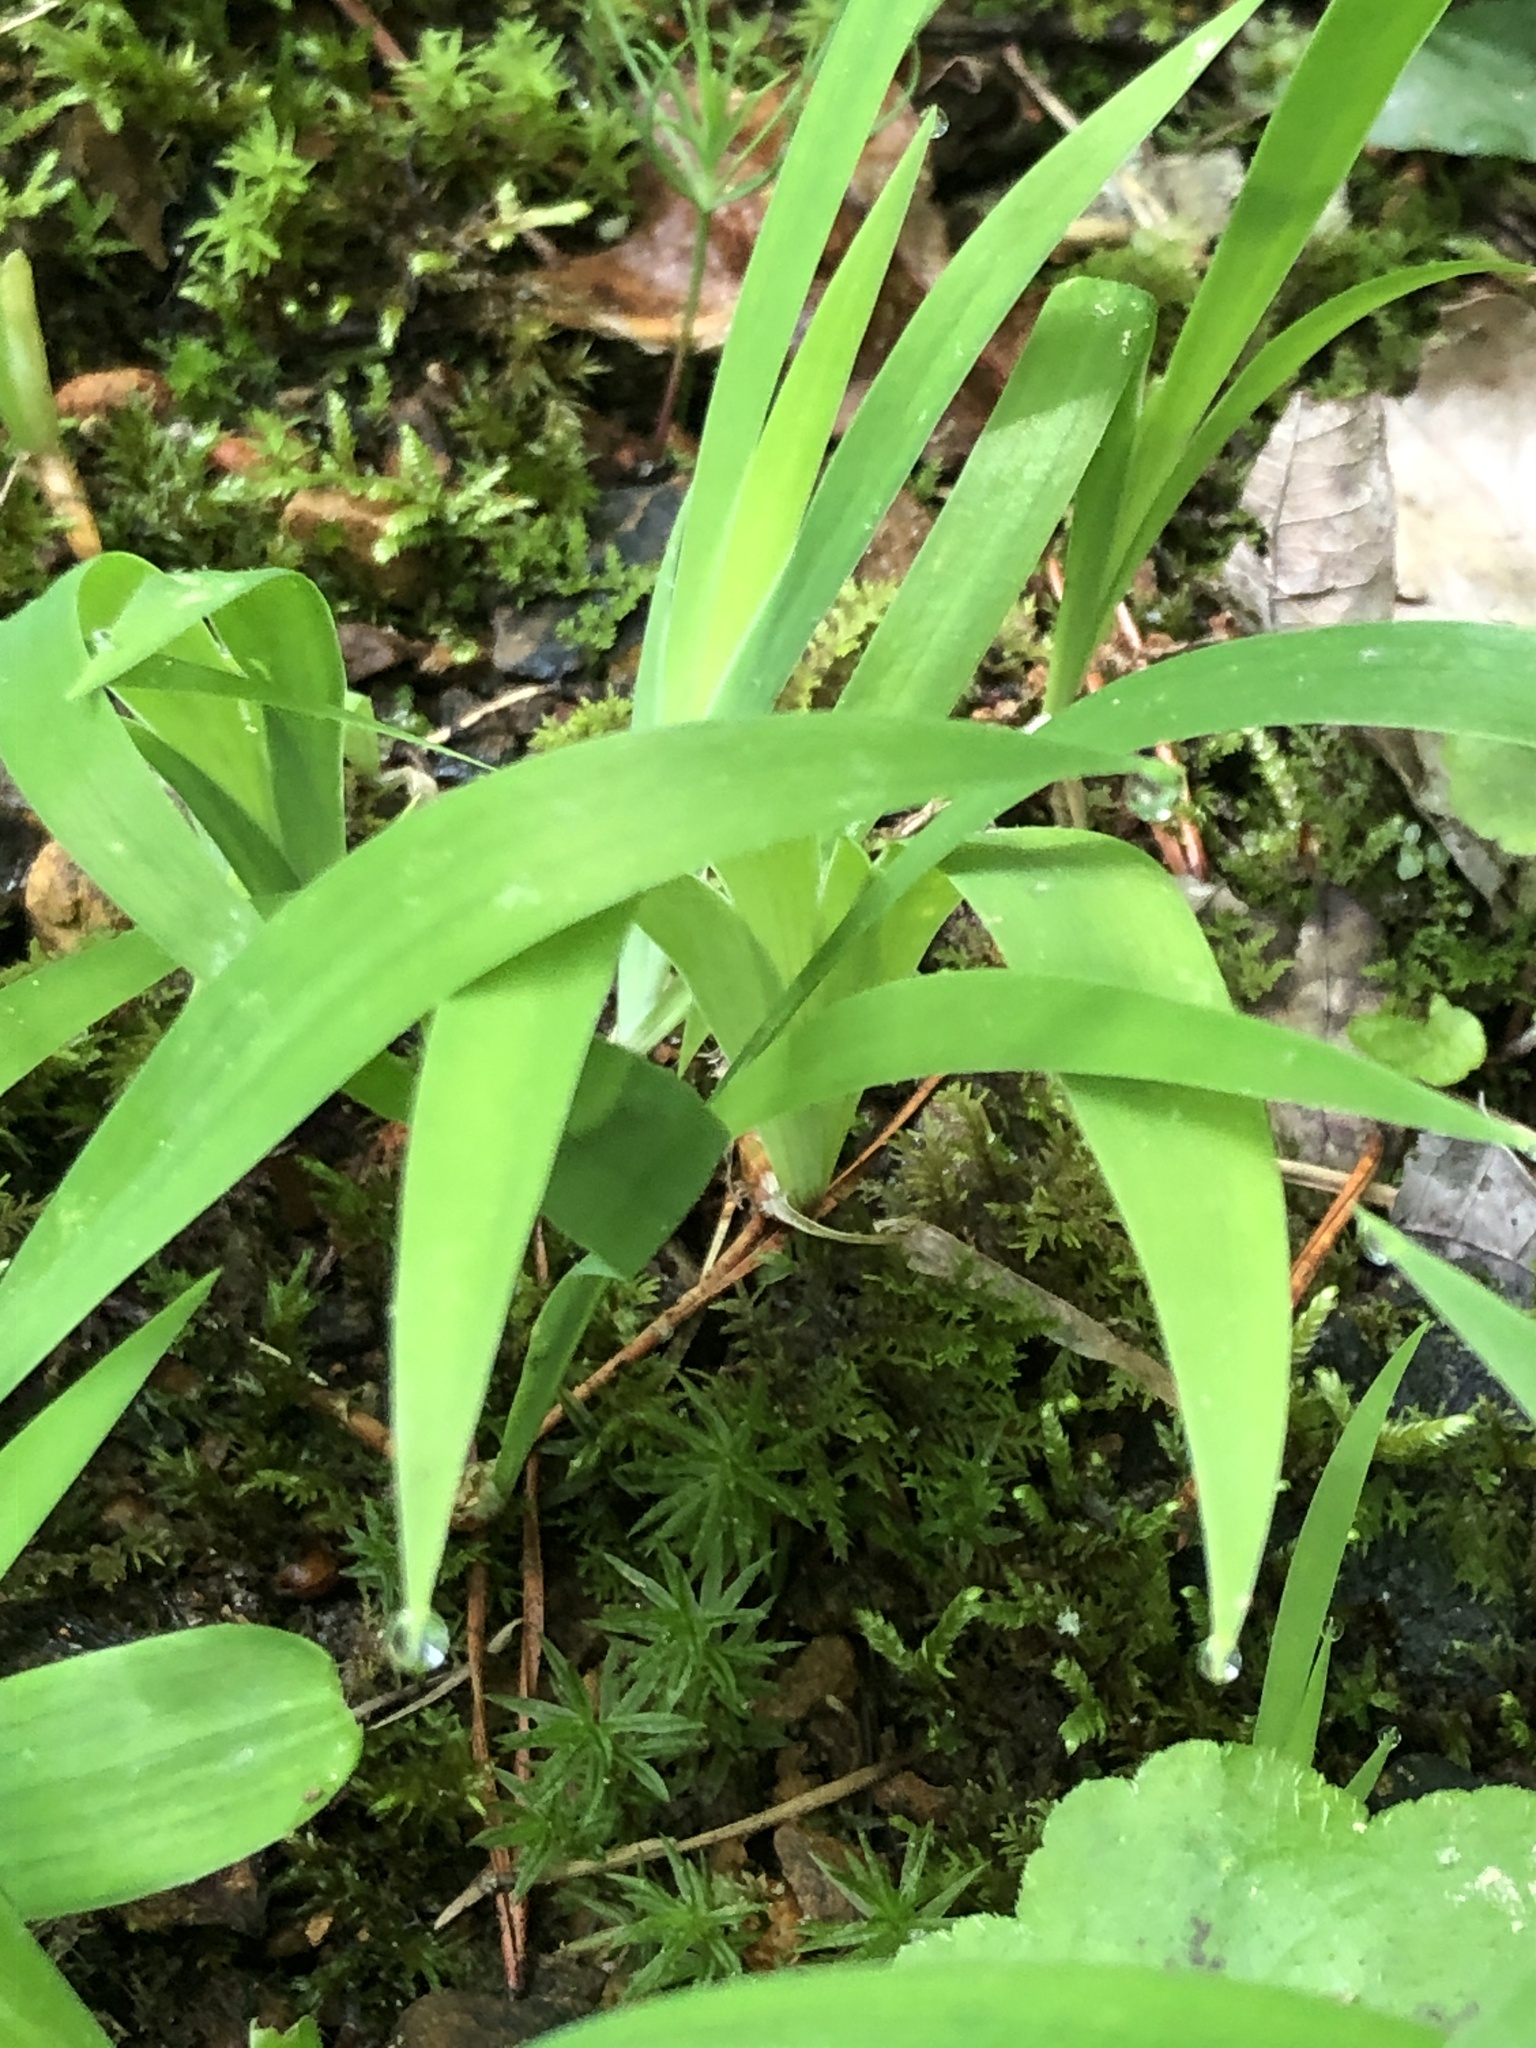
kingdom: Plantae
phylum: Tracheophyta
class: Liliopsida
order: Asparagales
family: Iridaceae
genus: Iris
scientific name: Iris cristata
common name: Crested iris
